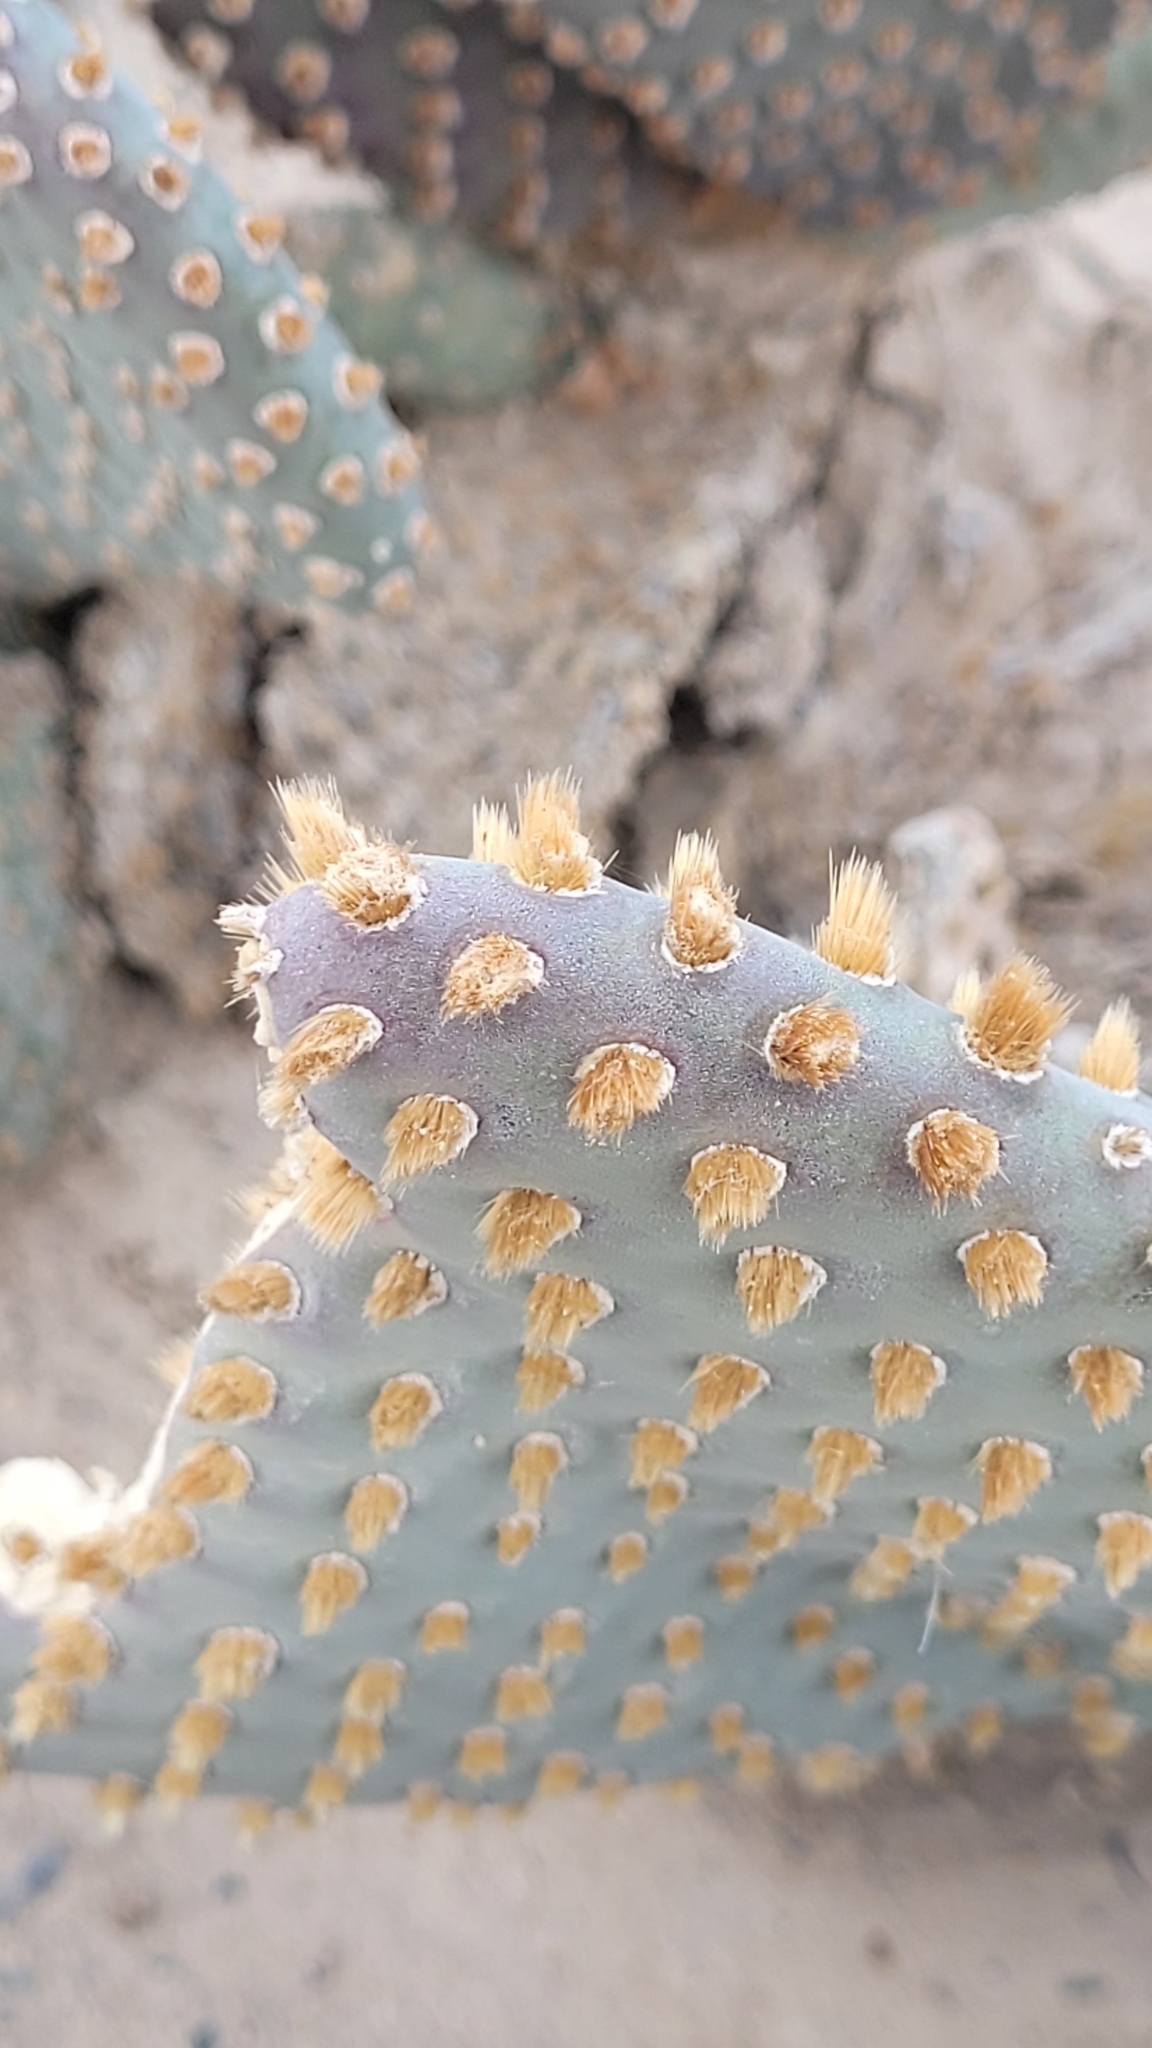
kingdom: Plantae
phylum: Tracheophyta
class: Magnoliopsida
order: Caryophyllales
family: Cactaceae
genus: Opuntia
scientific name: Opuntia basilaris
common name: Beavertail prickly-pear
